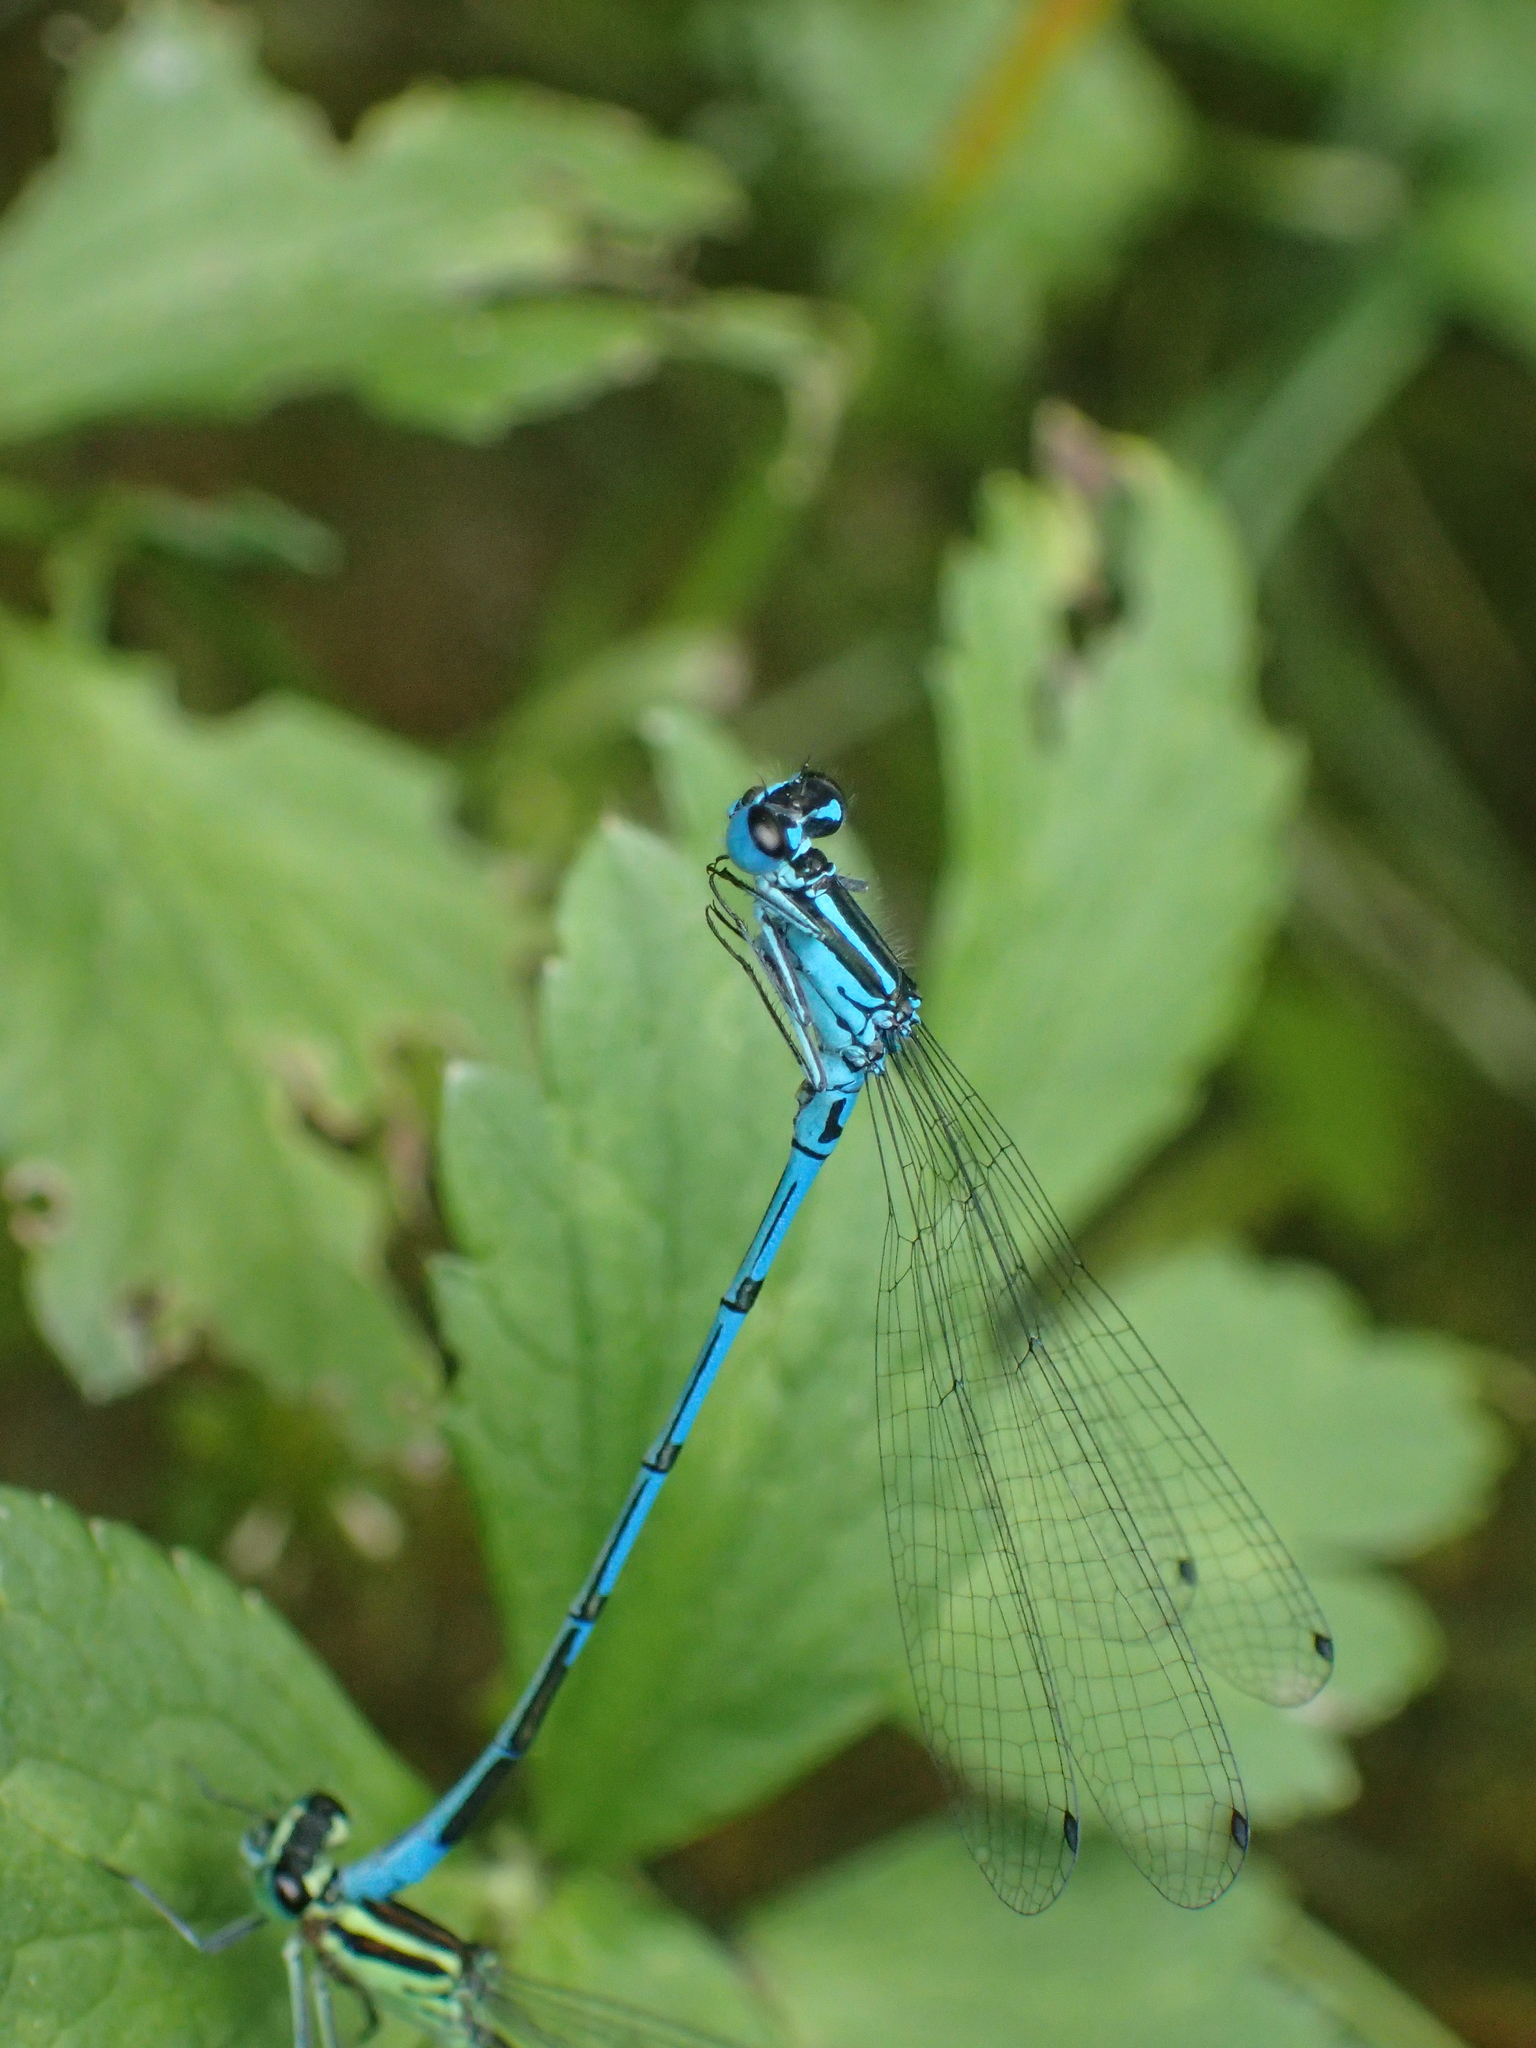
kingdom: Animalia
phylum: Arthropoda
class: Insecta
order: Odonata
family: Coenagrionidae
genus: Coenagrion
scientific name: Coenagrion puella
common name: Azure damselfly
